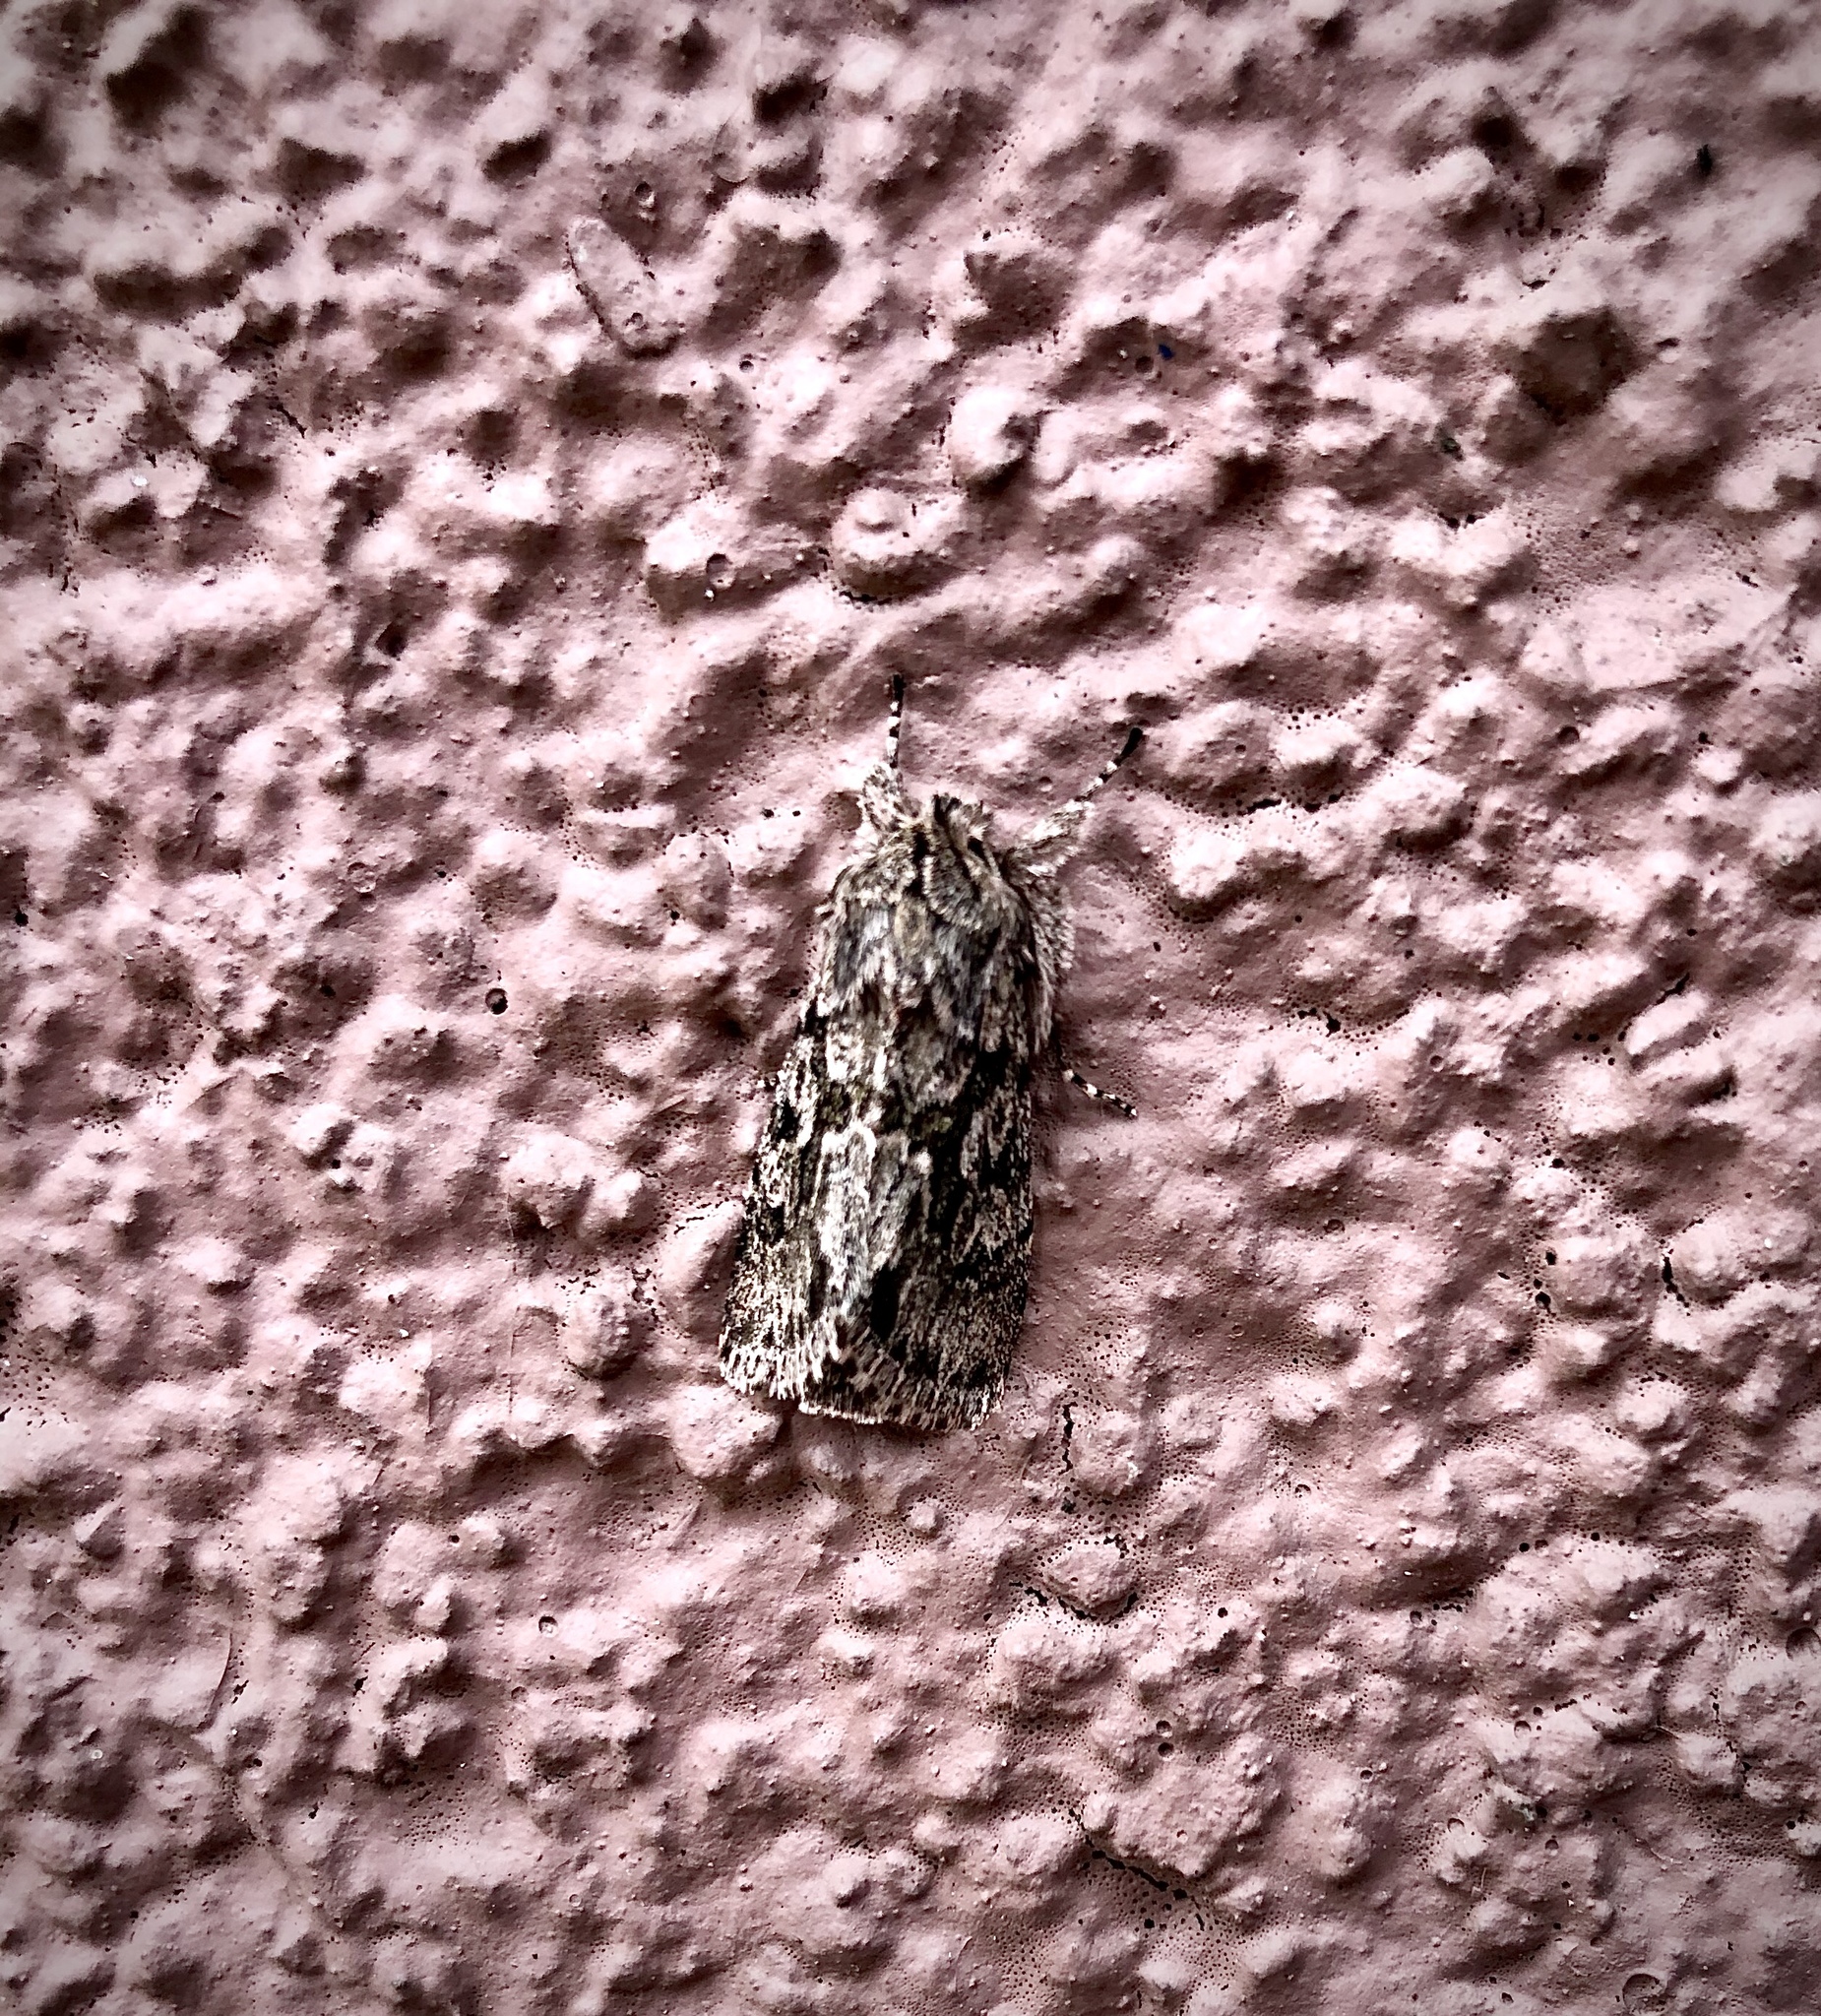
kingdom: Animalia
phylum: Arthropoda
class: Insecta
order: Lepidoptera
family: Noctuidae
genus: Xylocampa
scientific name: Xylocampa areola
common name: Early grey
